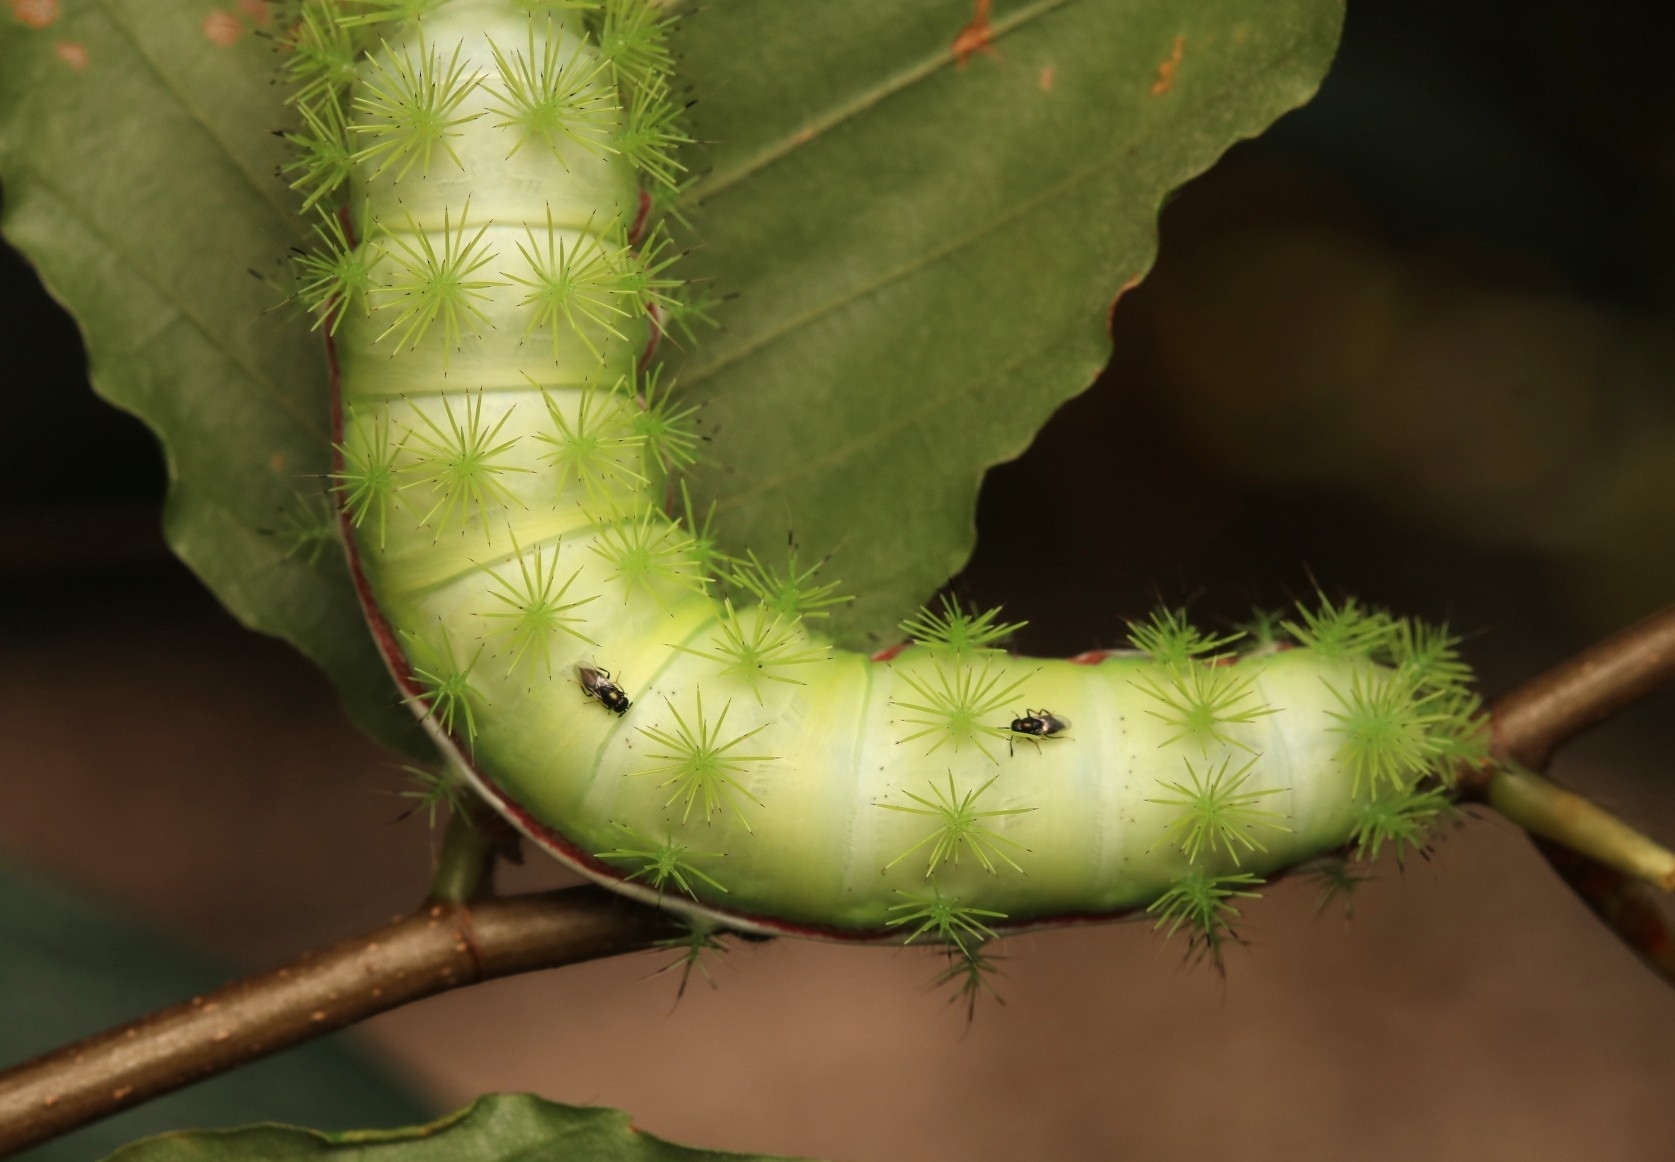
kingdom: Animalia
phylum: Arthropoda
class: Insecta
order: Lepidoptera
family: Saturniidae
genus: Automeris
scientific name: Automeris io
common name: Io moth
